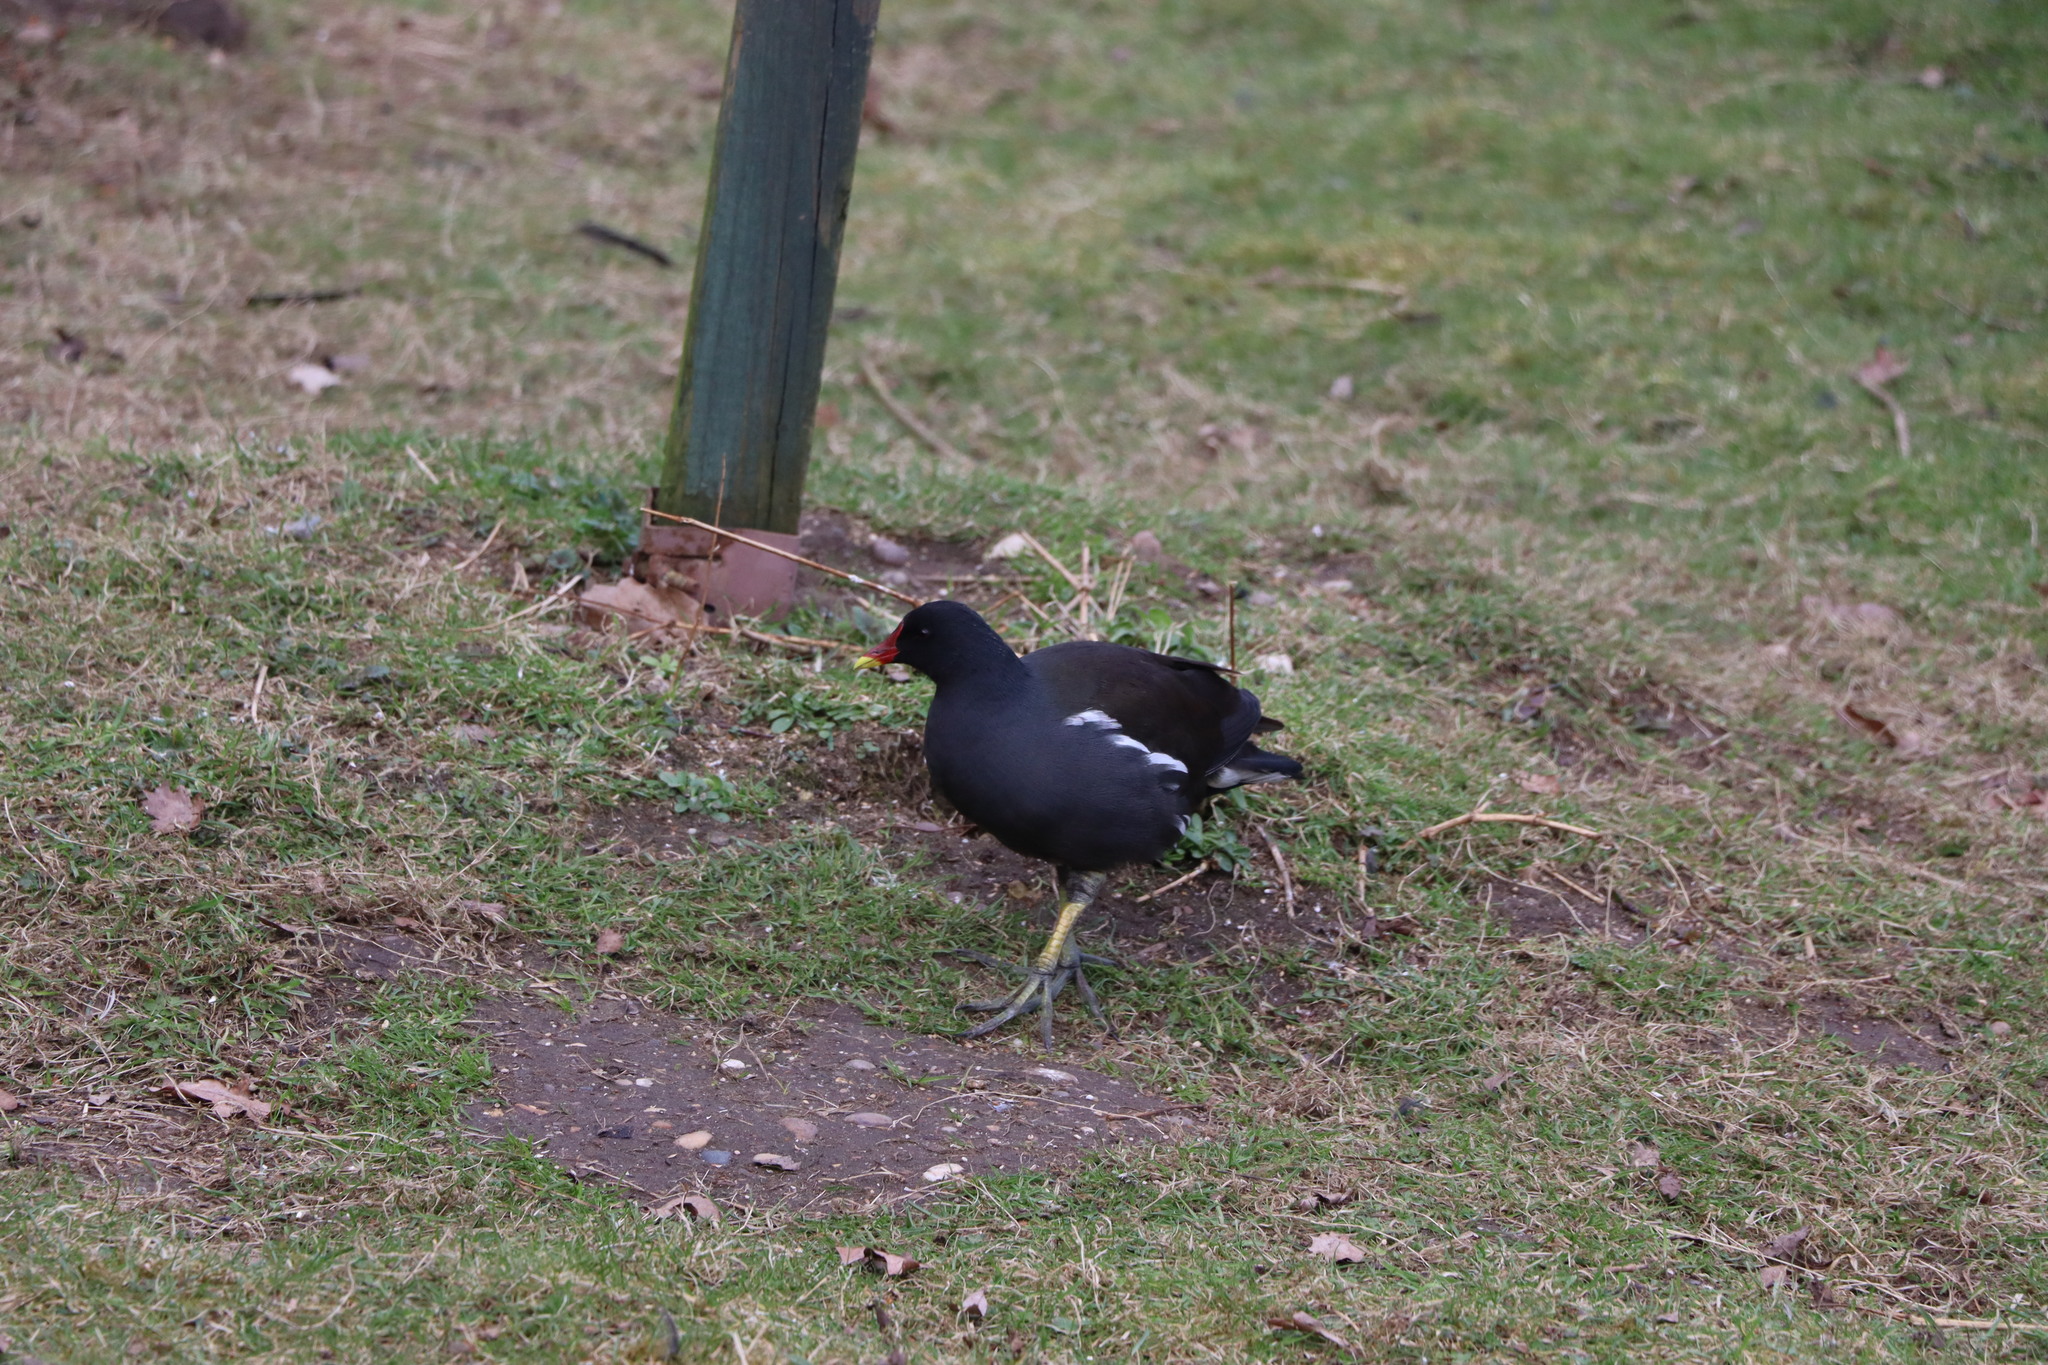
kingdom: Animalia
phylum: Chordata
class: Aves
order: Gruiformes
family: Rallidae
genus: Gallinula
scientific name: Gallinula chloropus
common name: Common moorhen
